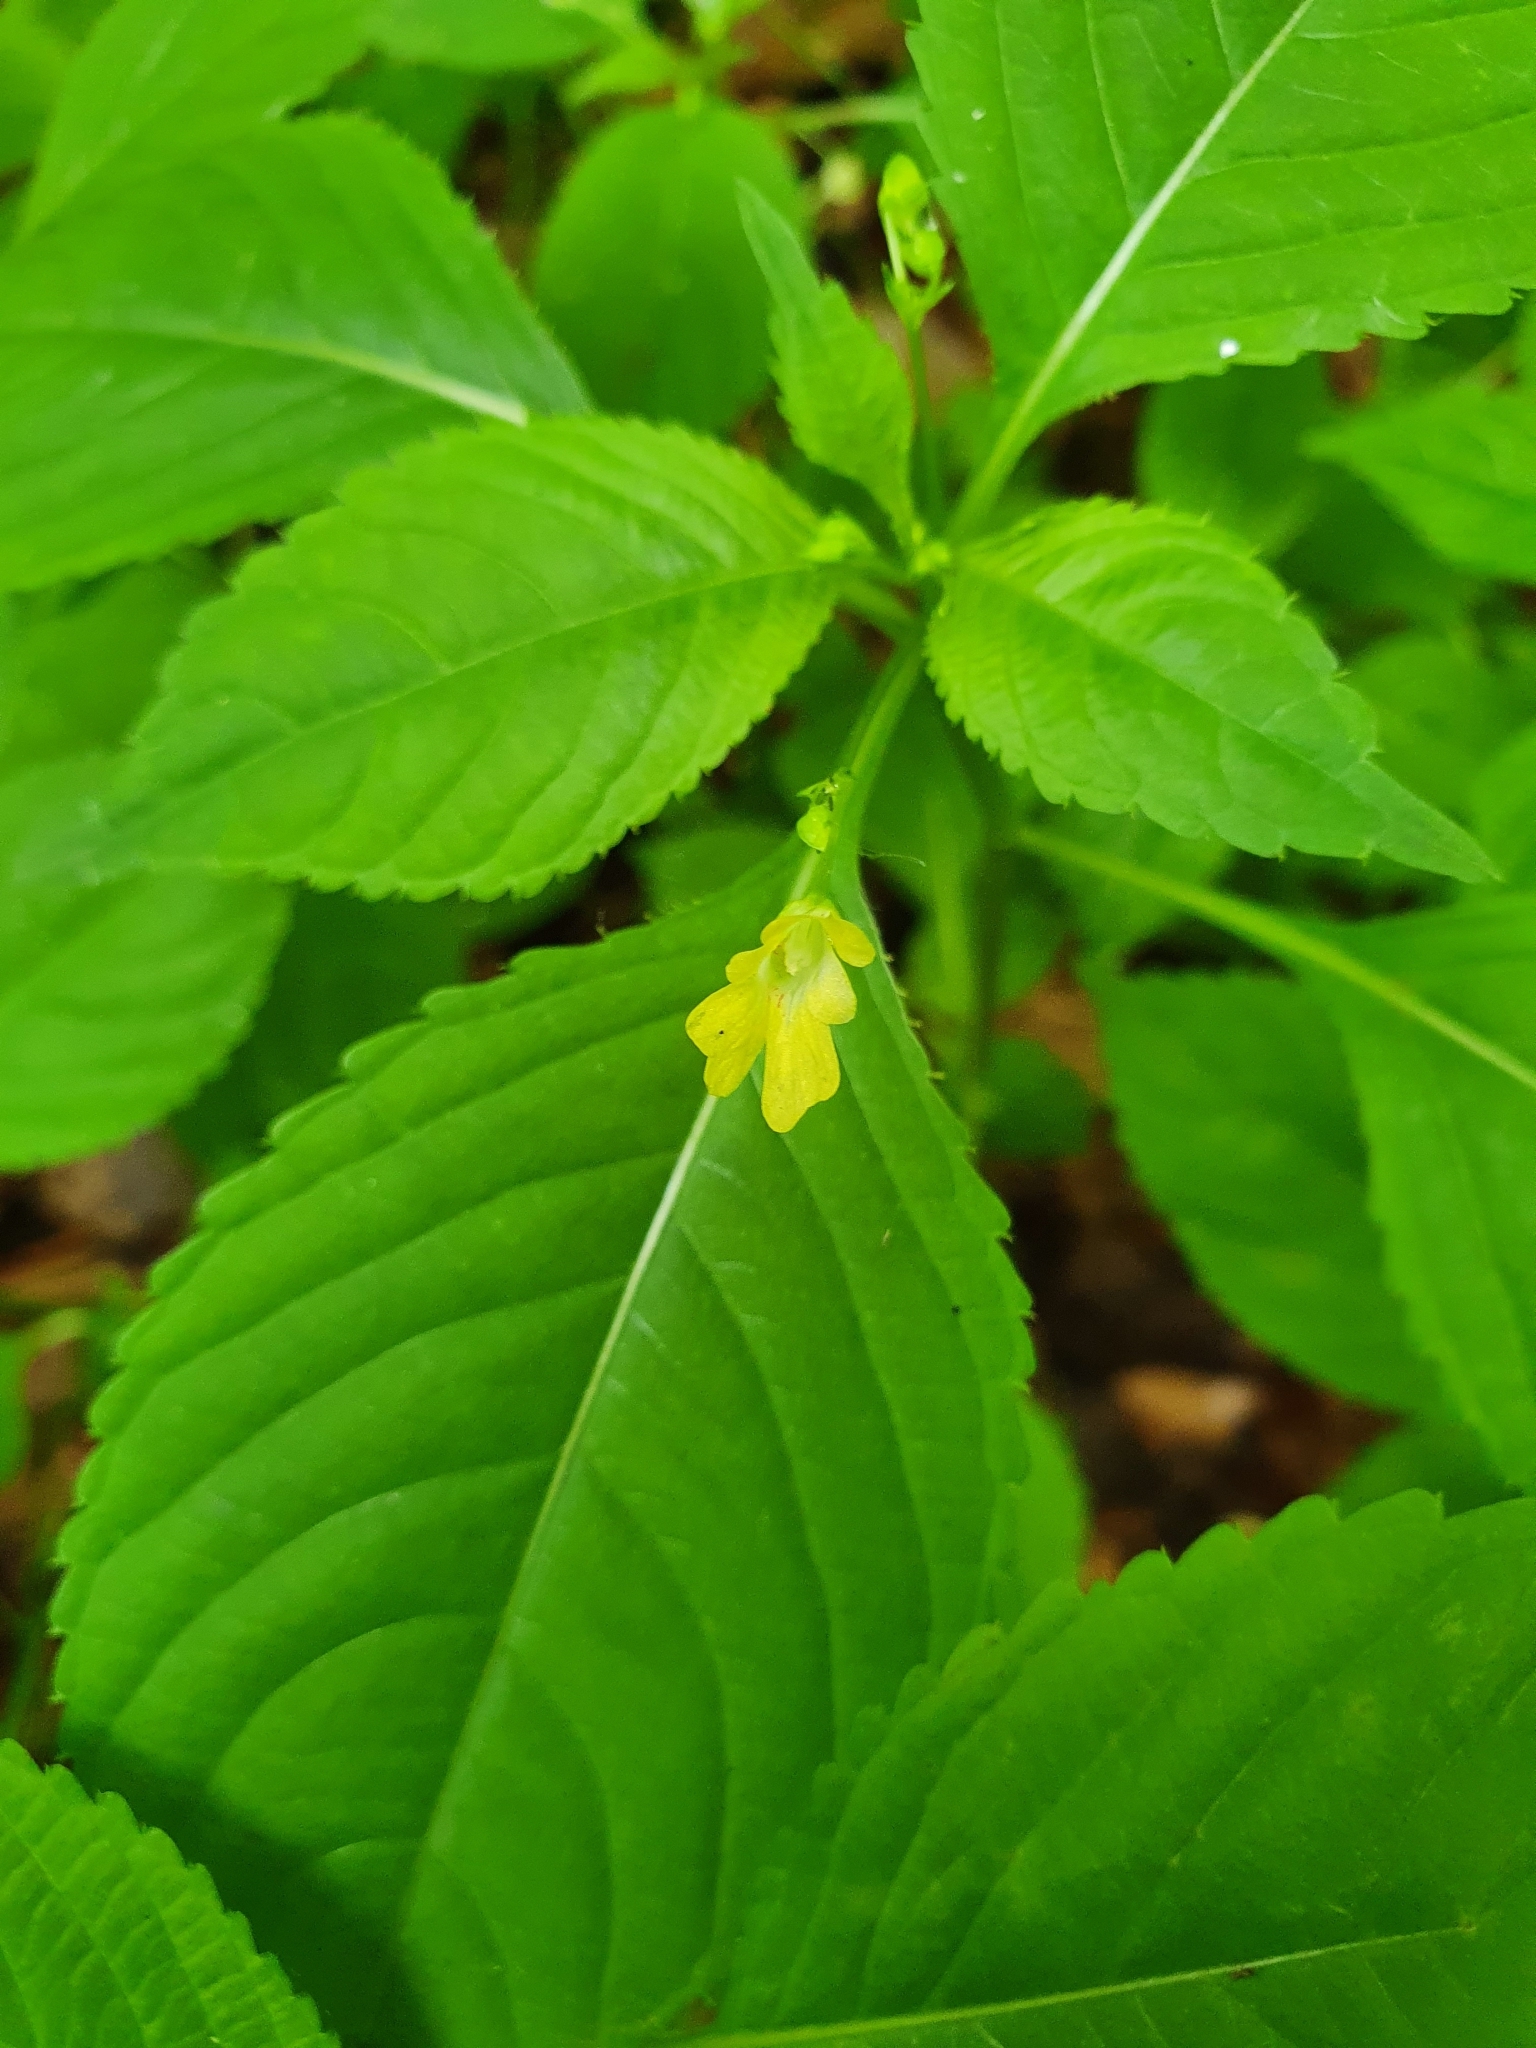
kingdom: Plantae
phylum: Tracheophyta
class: Magnoliopsida
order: Ericales
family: Balsaminaceae
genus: Impatiens
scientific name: Impatiens parviflora
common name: Small balsam
